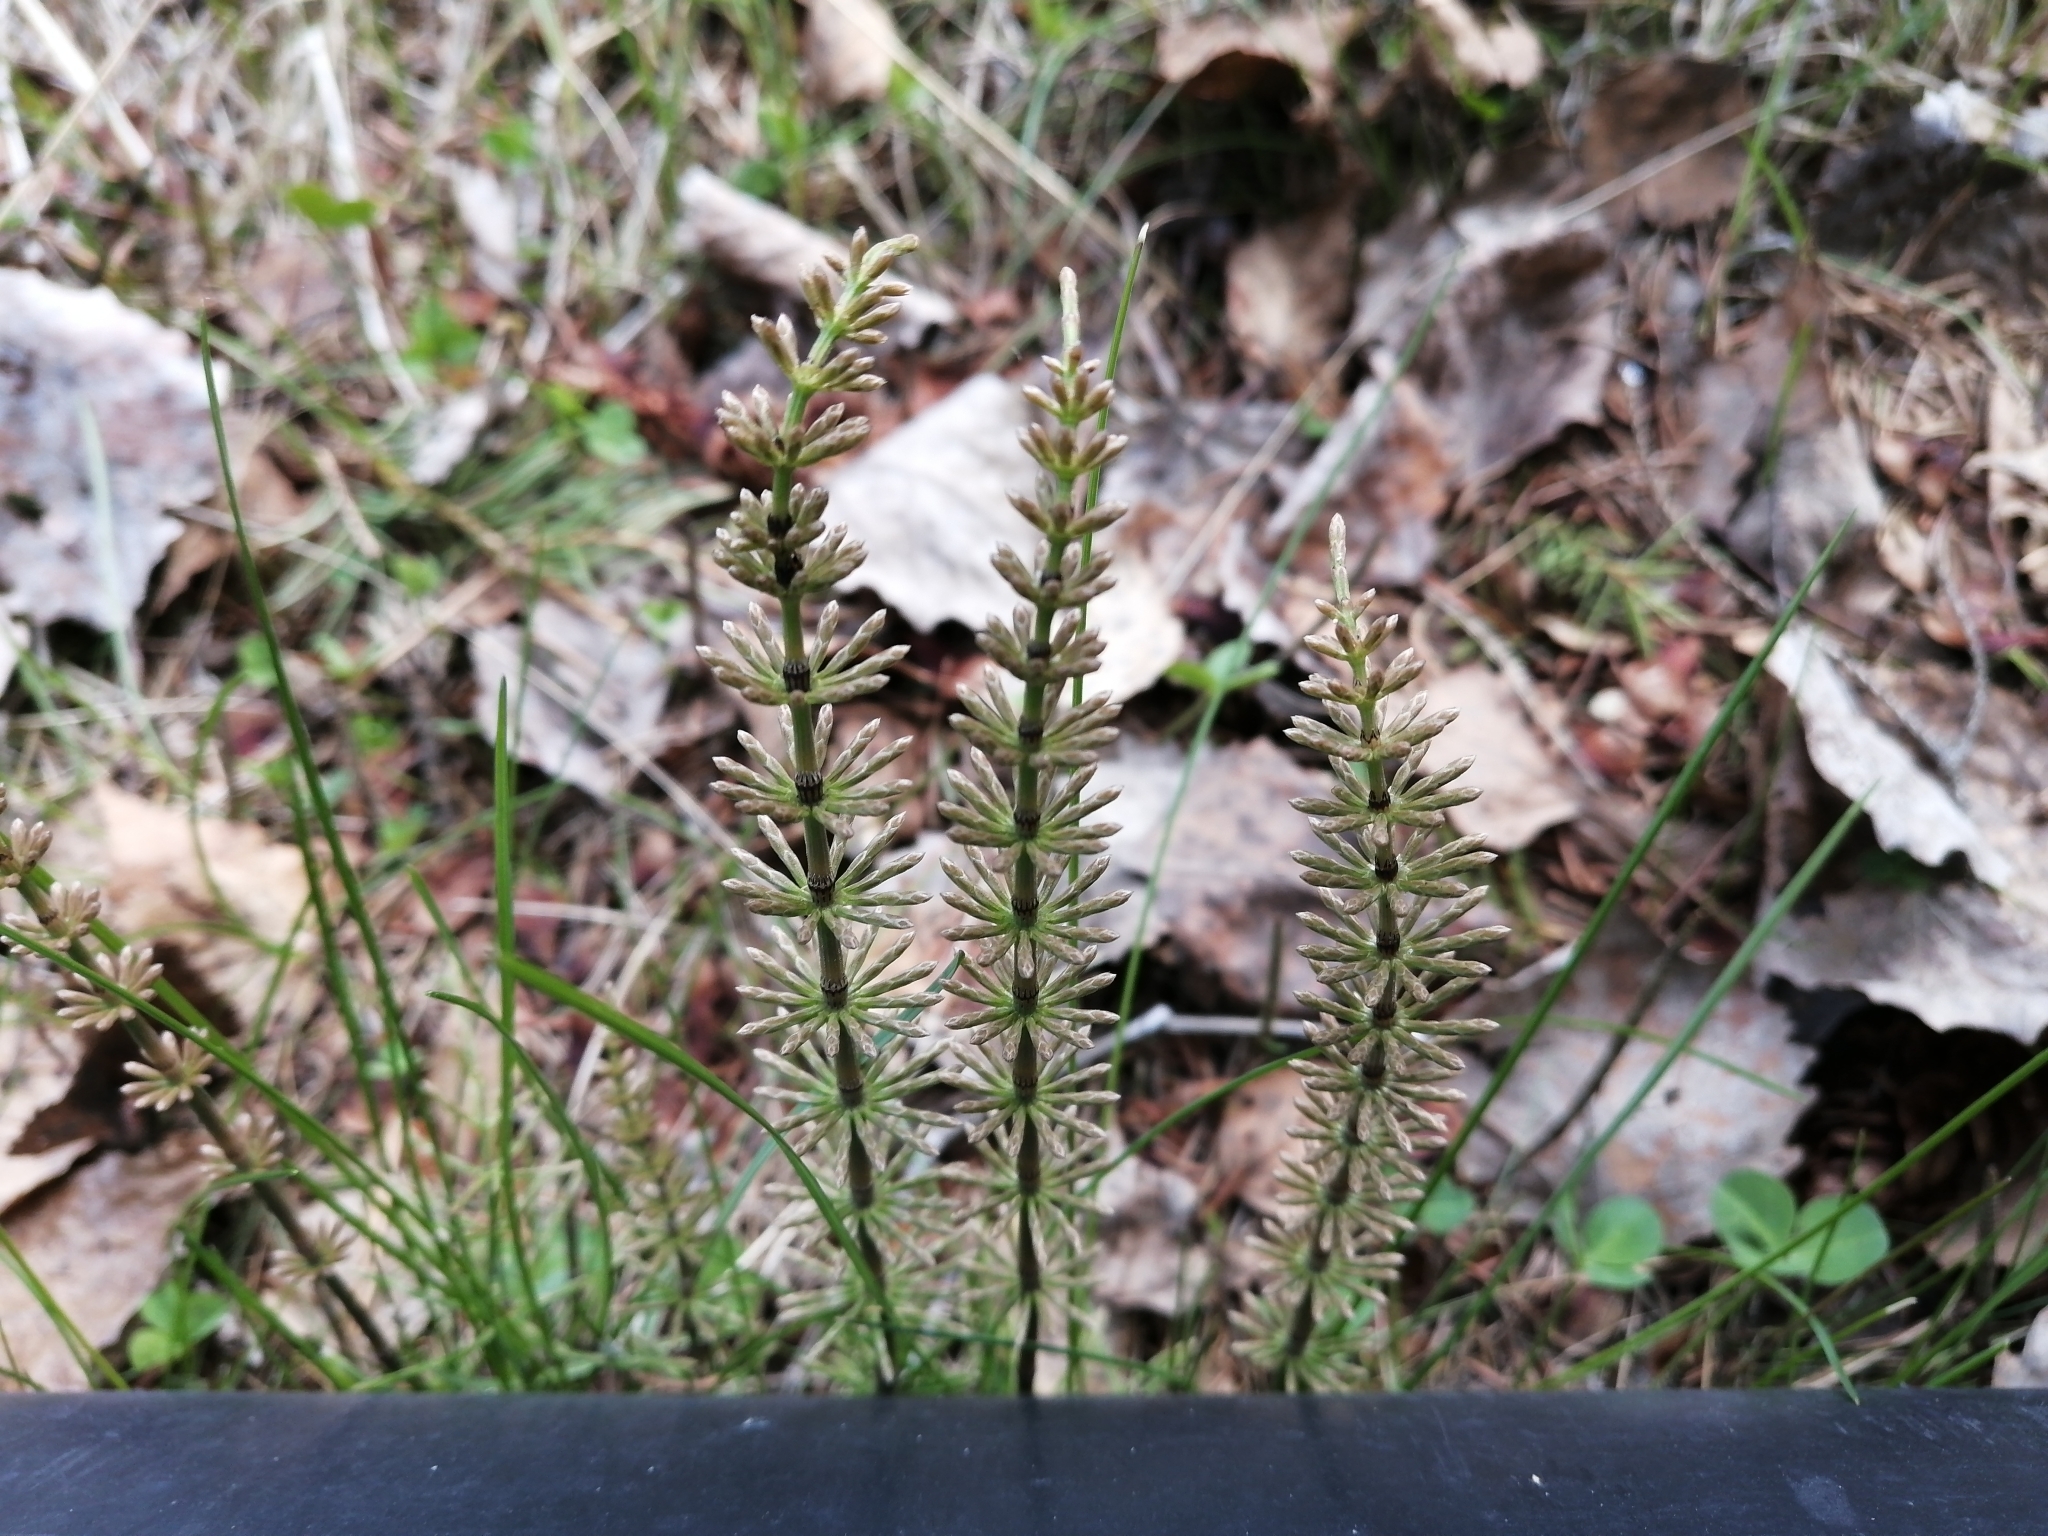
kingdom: Plantae
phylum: Tracheophyta
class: Polypodiopsida
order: Equisetales
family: Equisetaceae
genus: Equisetum
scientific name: Equisetum pratense
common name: Meadow horsetail
